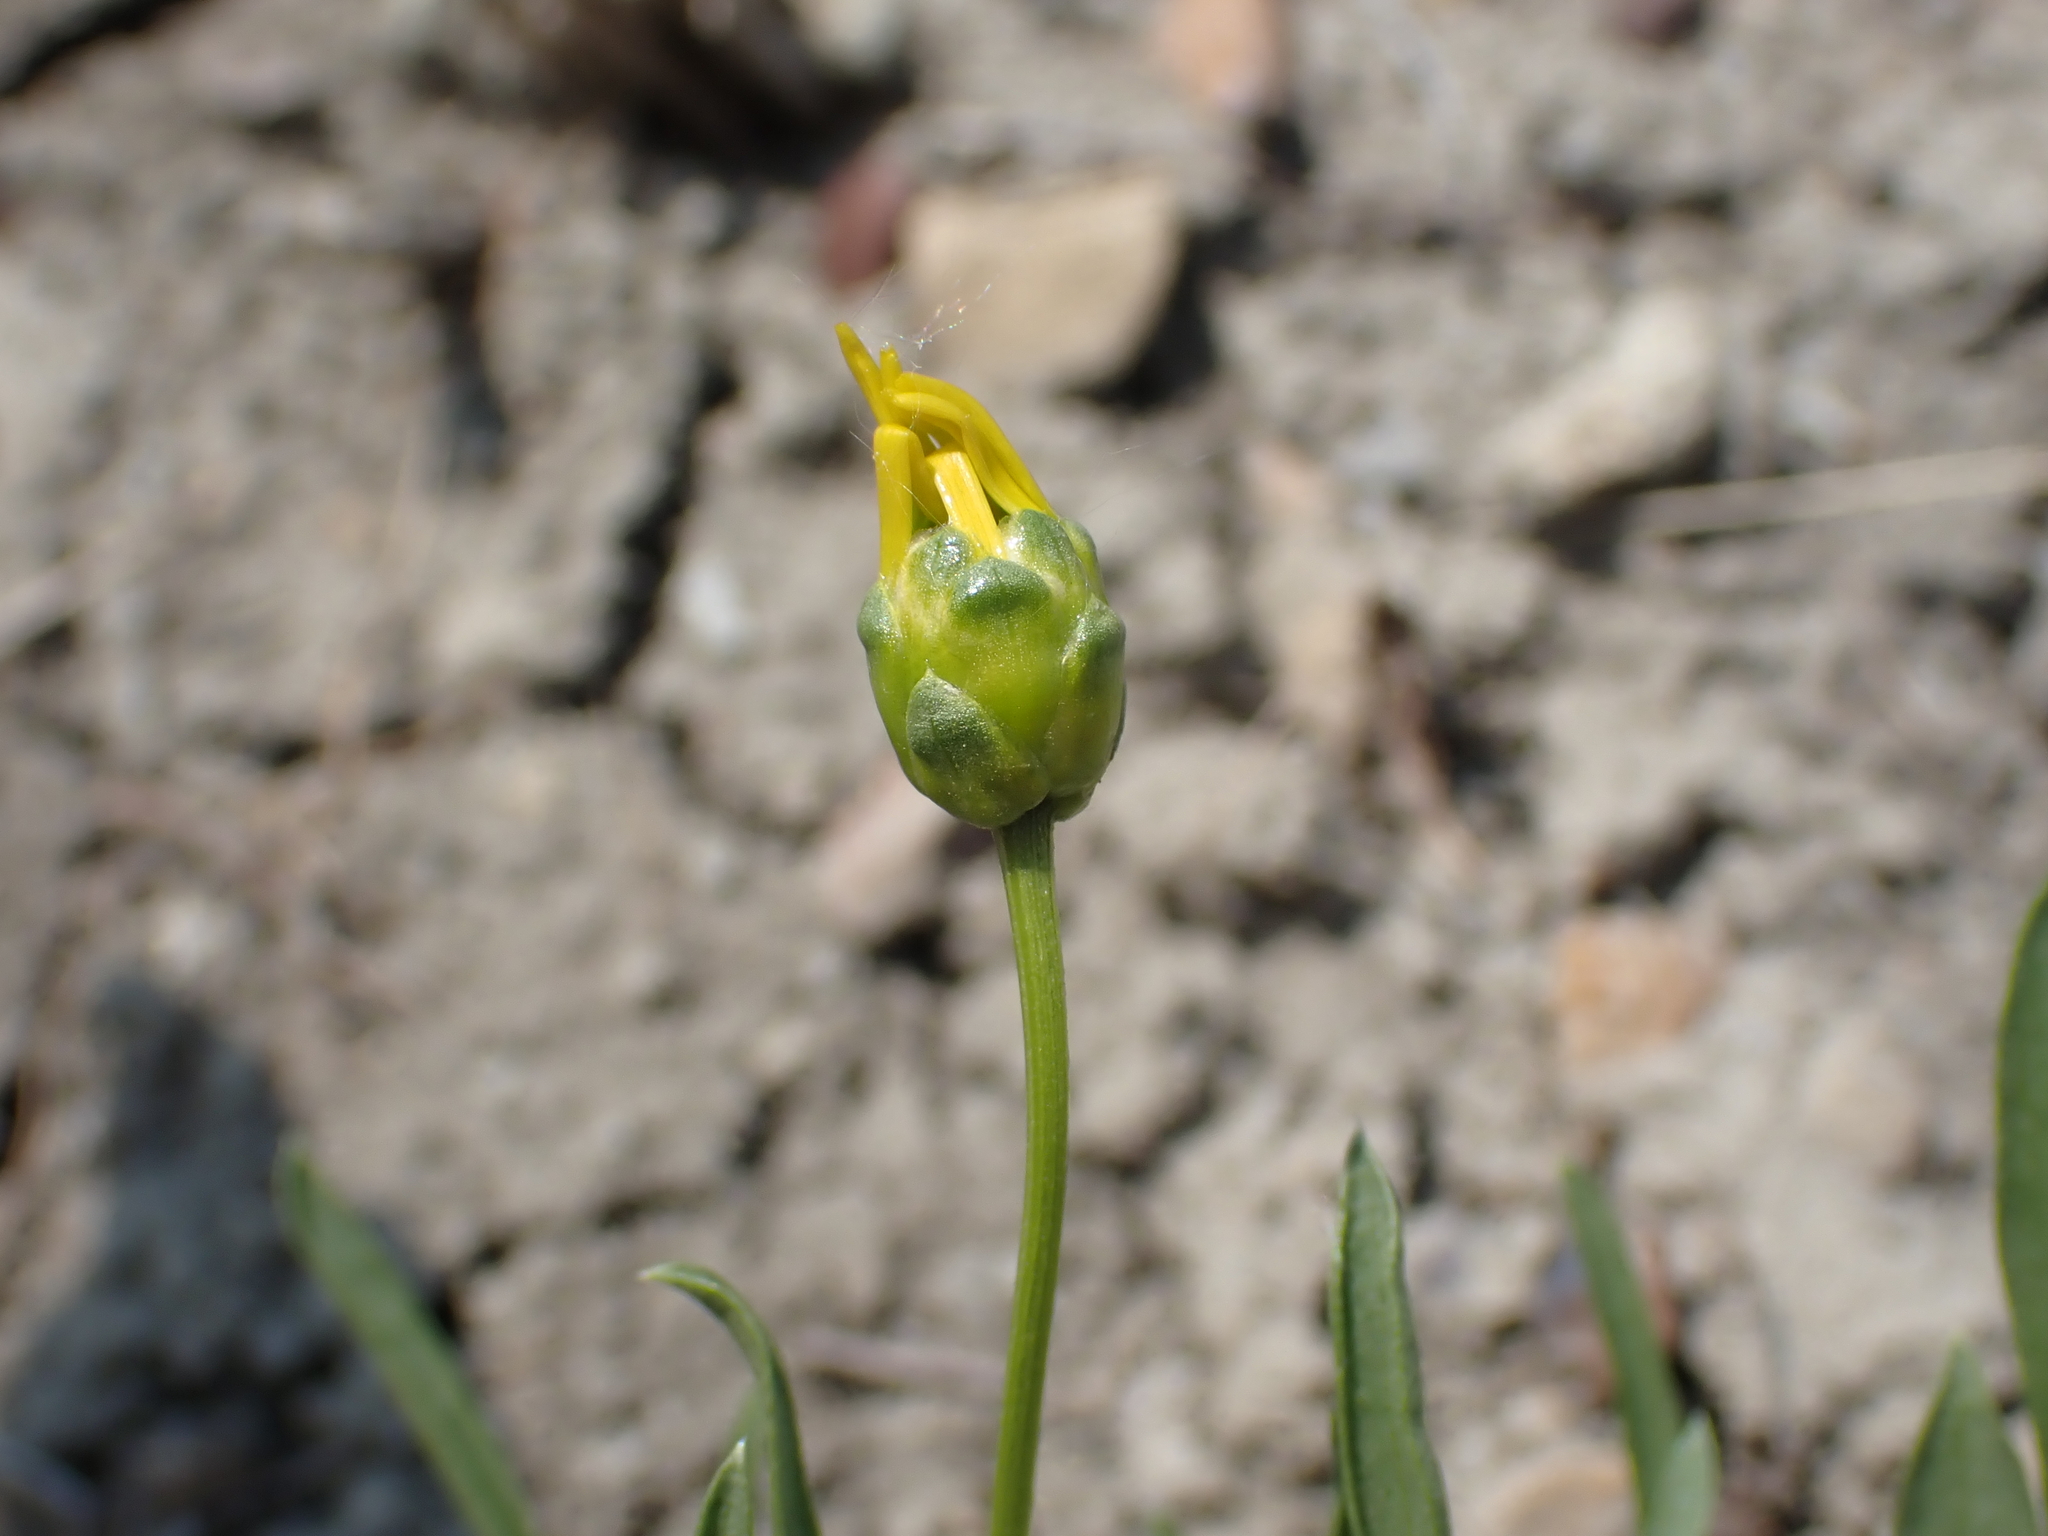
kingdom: Plantae
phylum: Tracheophyta
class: Magnoliopsida
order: Asterales
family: Asteraceae
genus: Stenotus
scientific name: Stenotus armerioides
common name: Thrifty goldenweed
